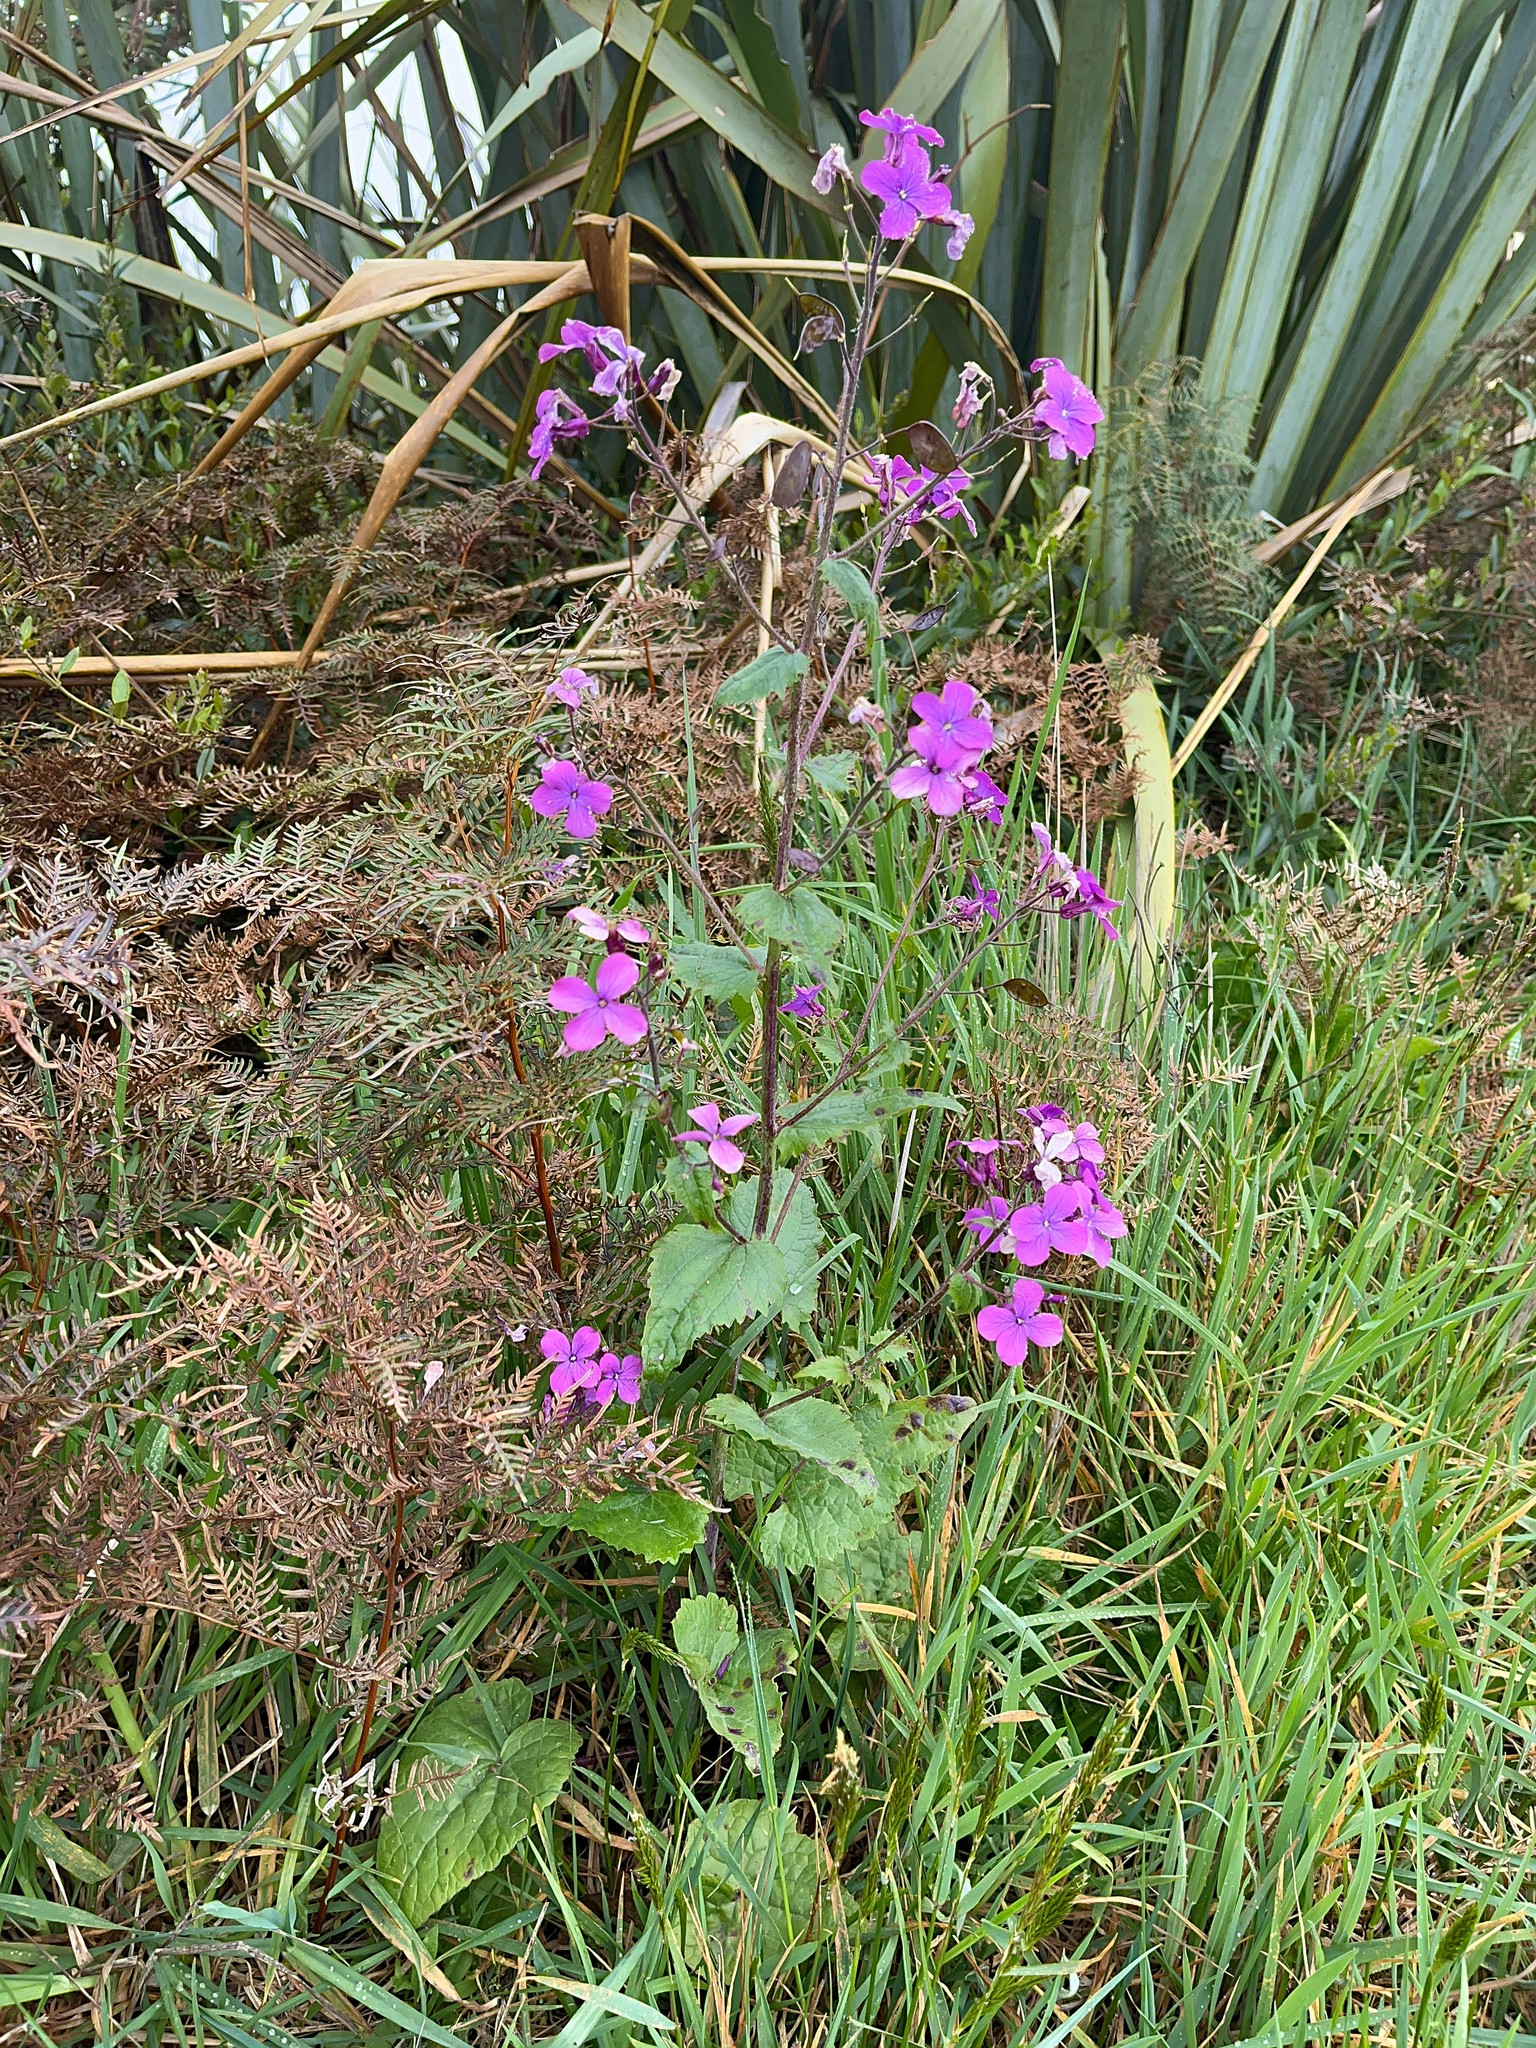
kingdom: Plantae
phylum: Tracheophyta
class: Magnoliopsida
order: Brassicales
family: Brassicaceae
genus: Lunaria
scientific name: Lunaria annua
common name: Honesty
